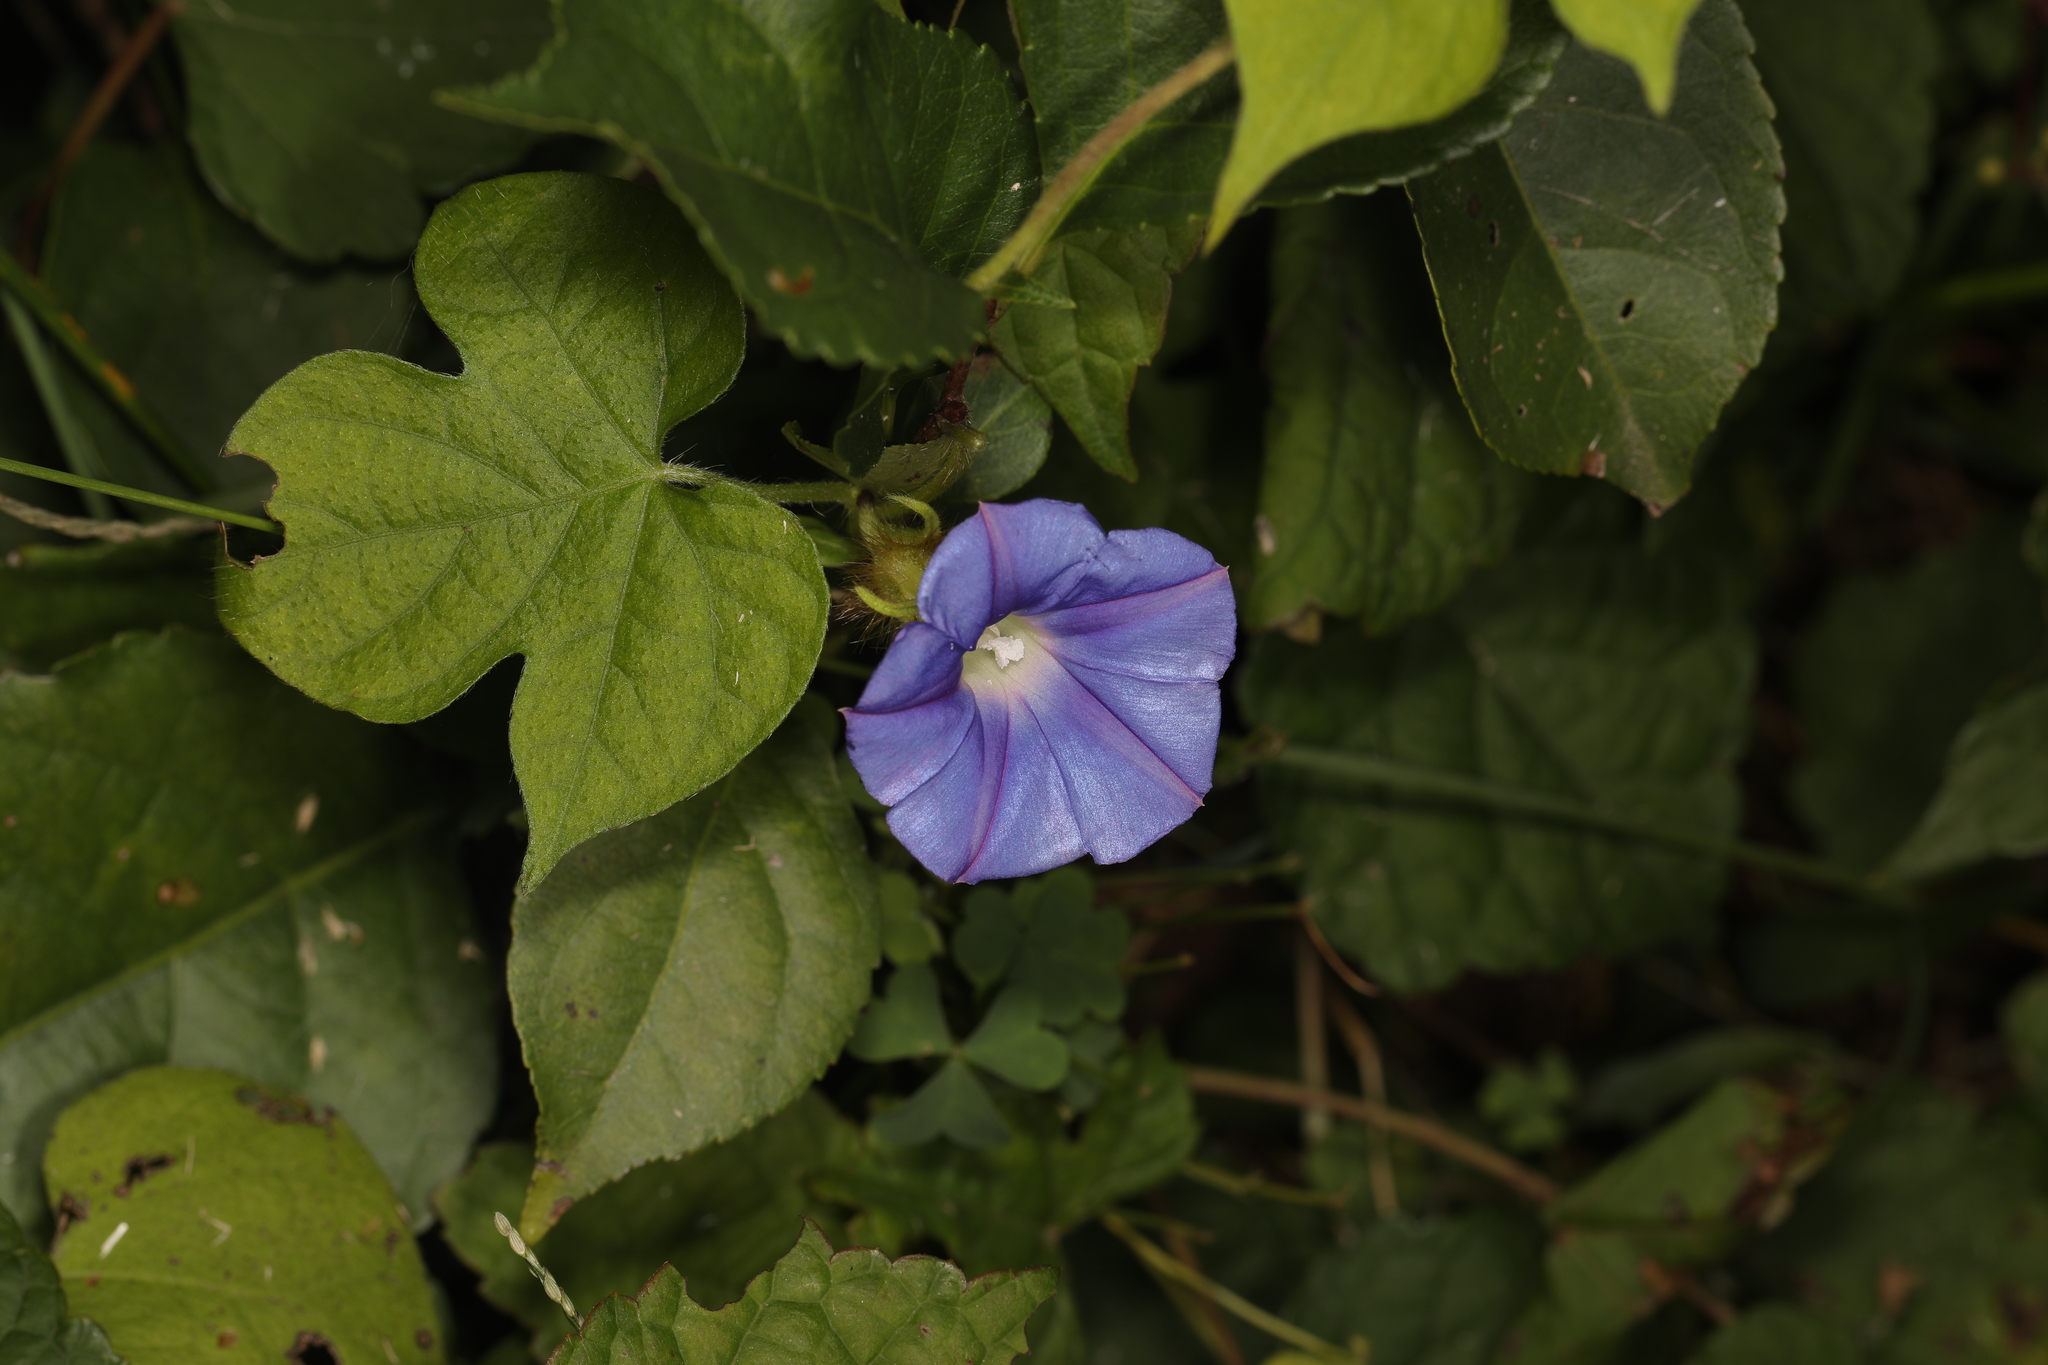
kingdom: Plantae
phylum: Tracheophyta
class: Magnoliopsida
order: Solanales
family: Convolvulaceae
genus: Ipomoea
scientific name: Ipomoea hederacea
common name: Ivy-leaved morning-glory
